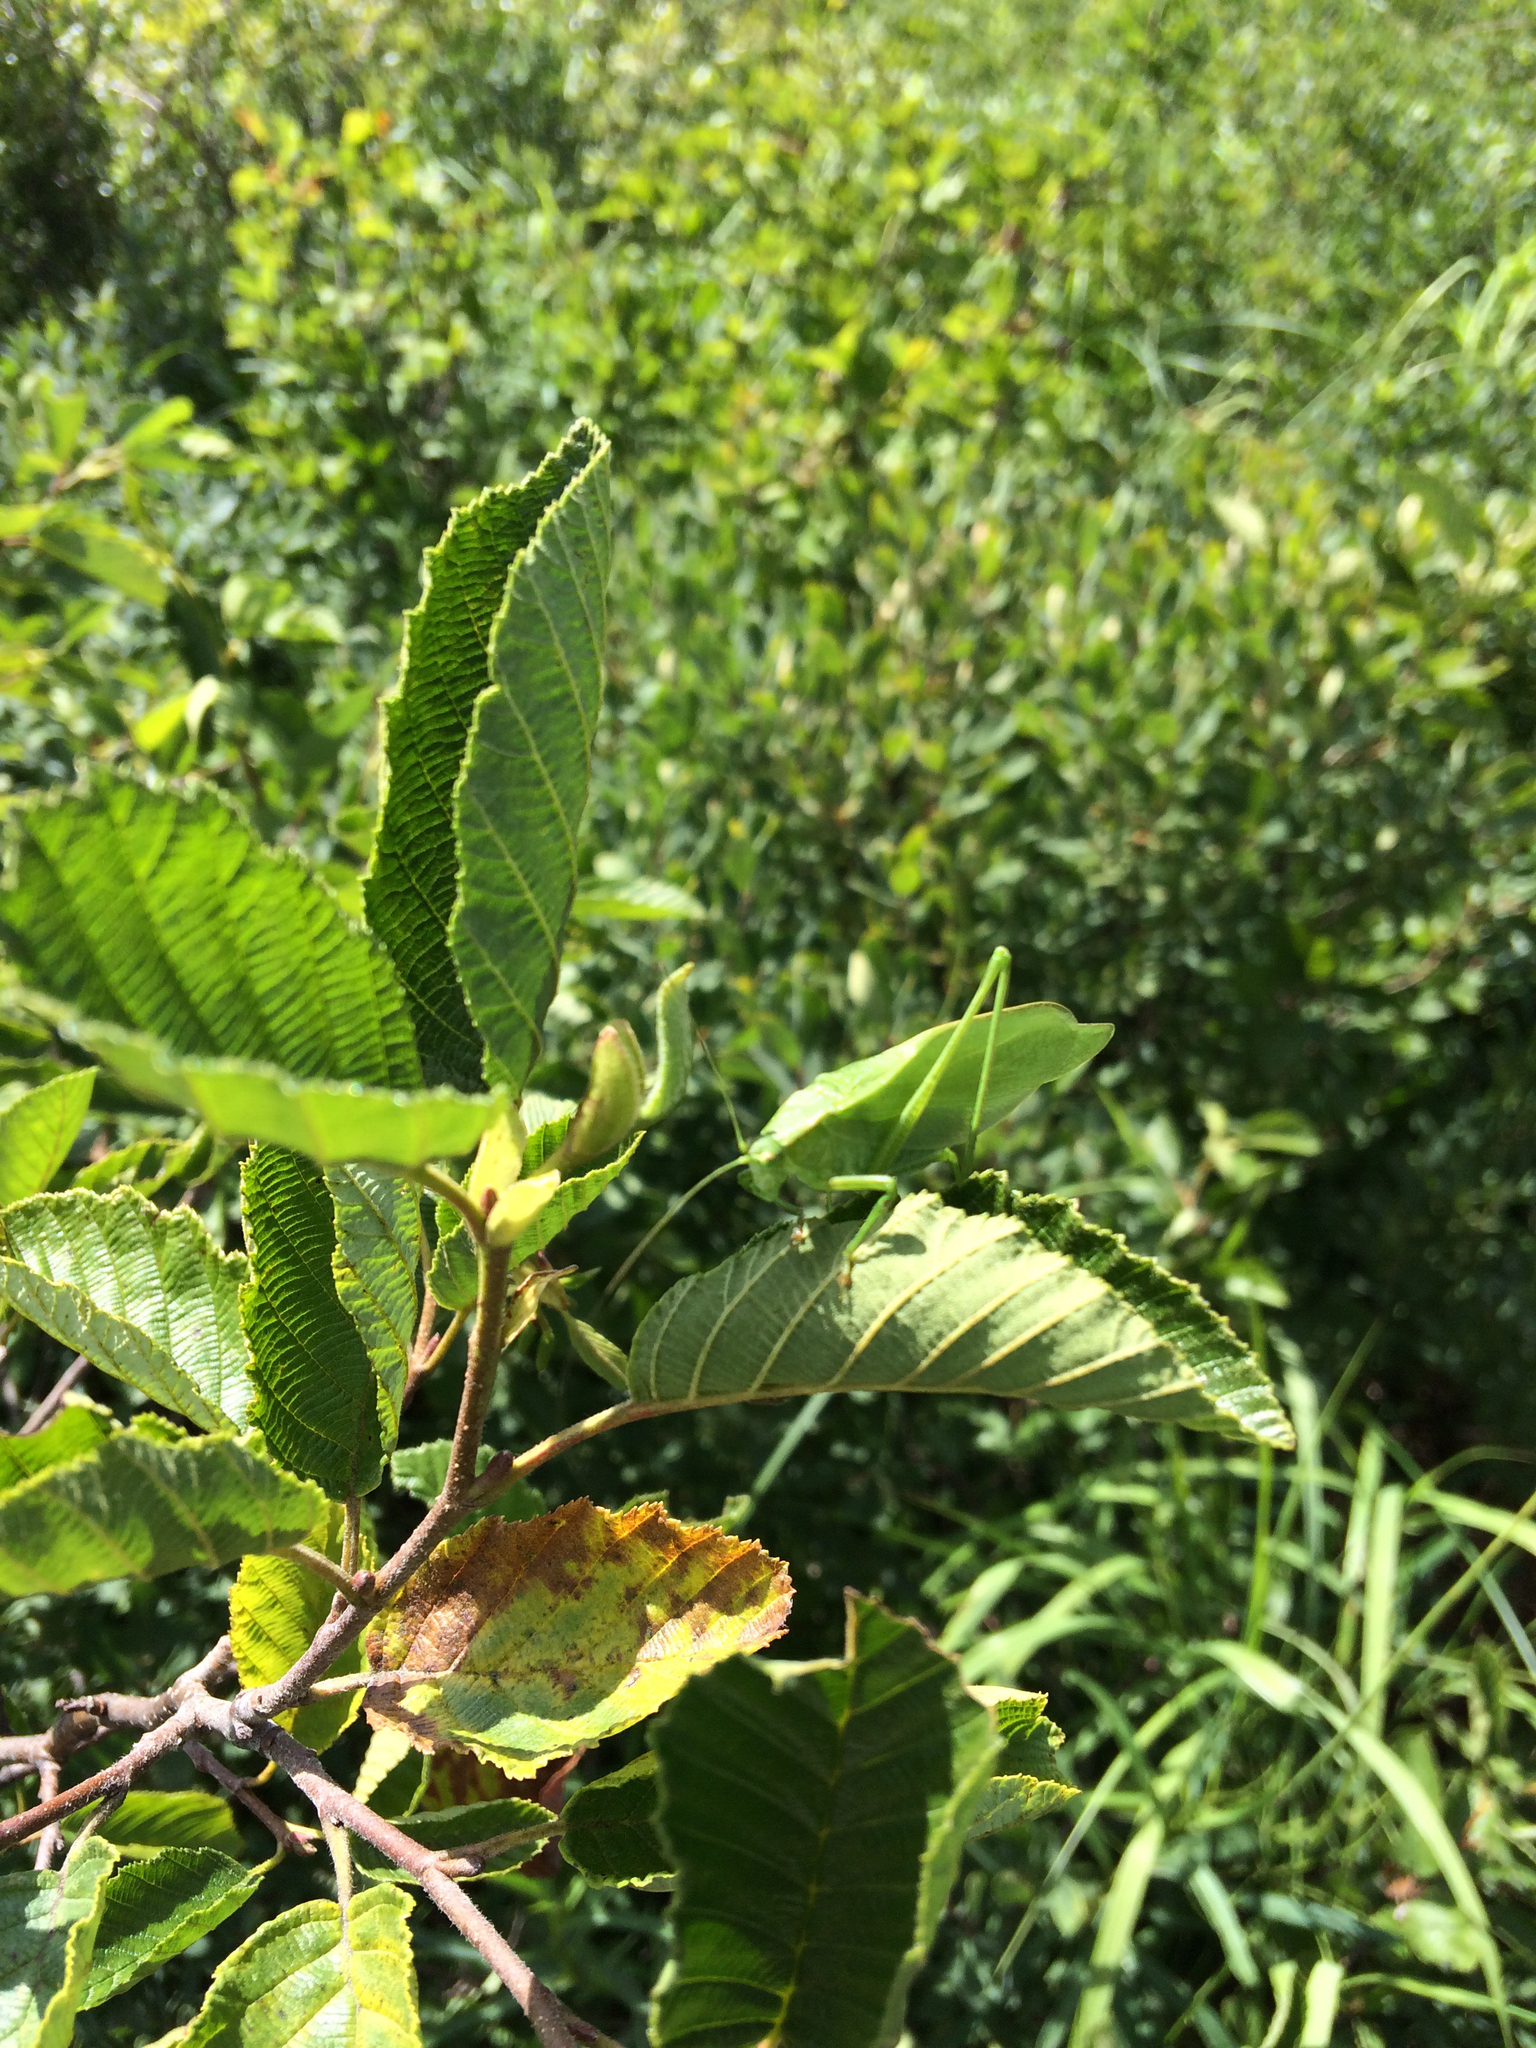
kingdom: Animalia
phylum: Arthropoda
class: Insecta
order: Orthoptera
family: Tettigoniidae
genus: Scudderia
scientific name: Scudderia pistillata
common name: Broad-winged bush-katydid
